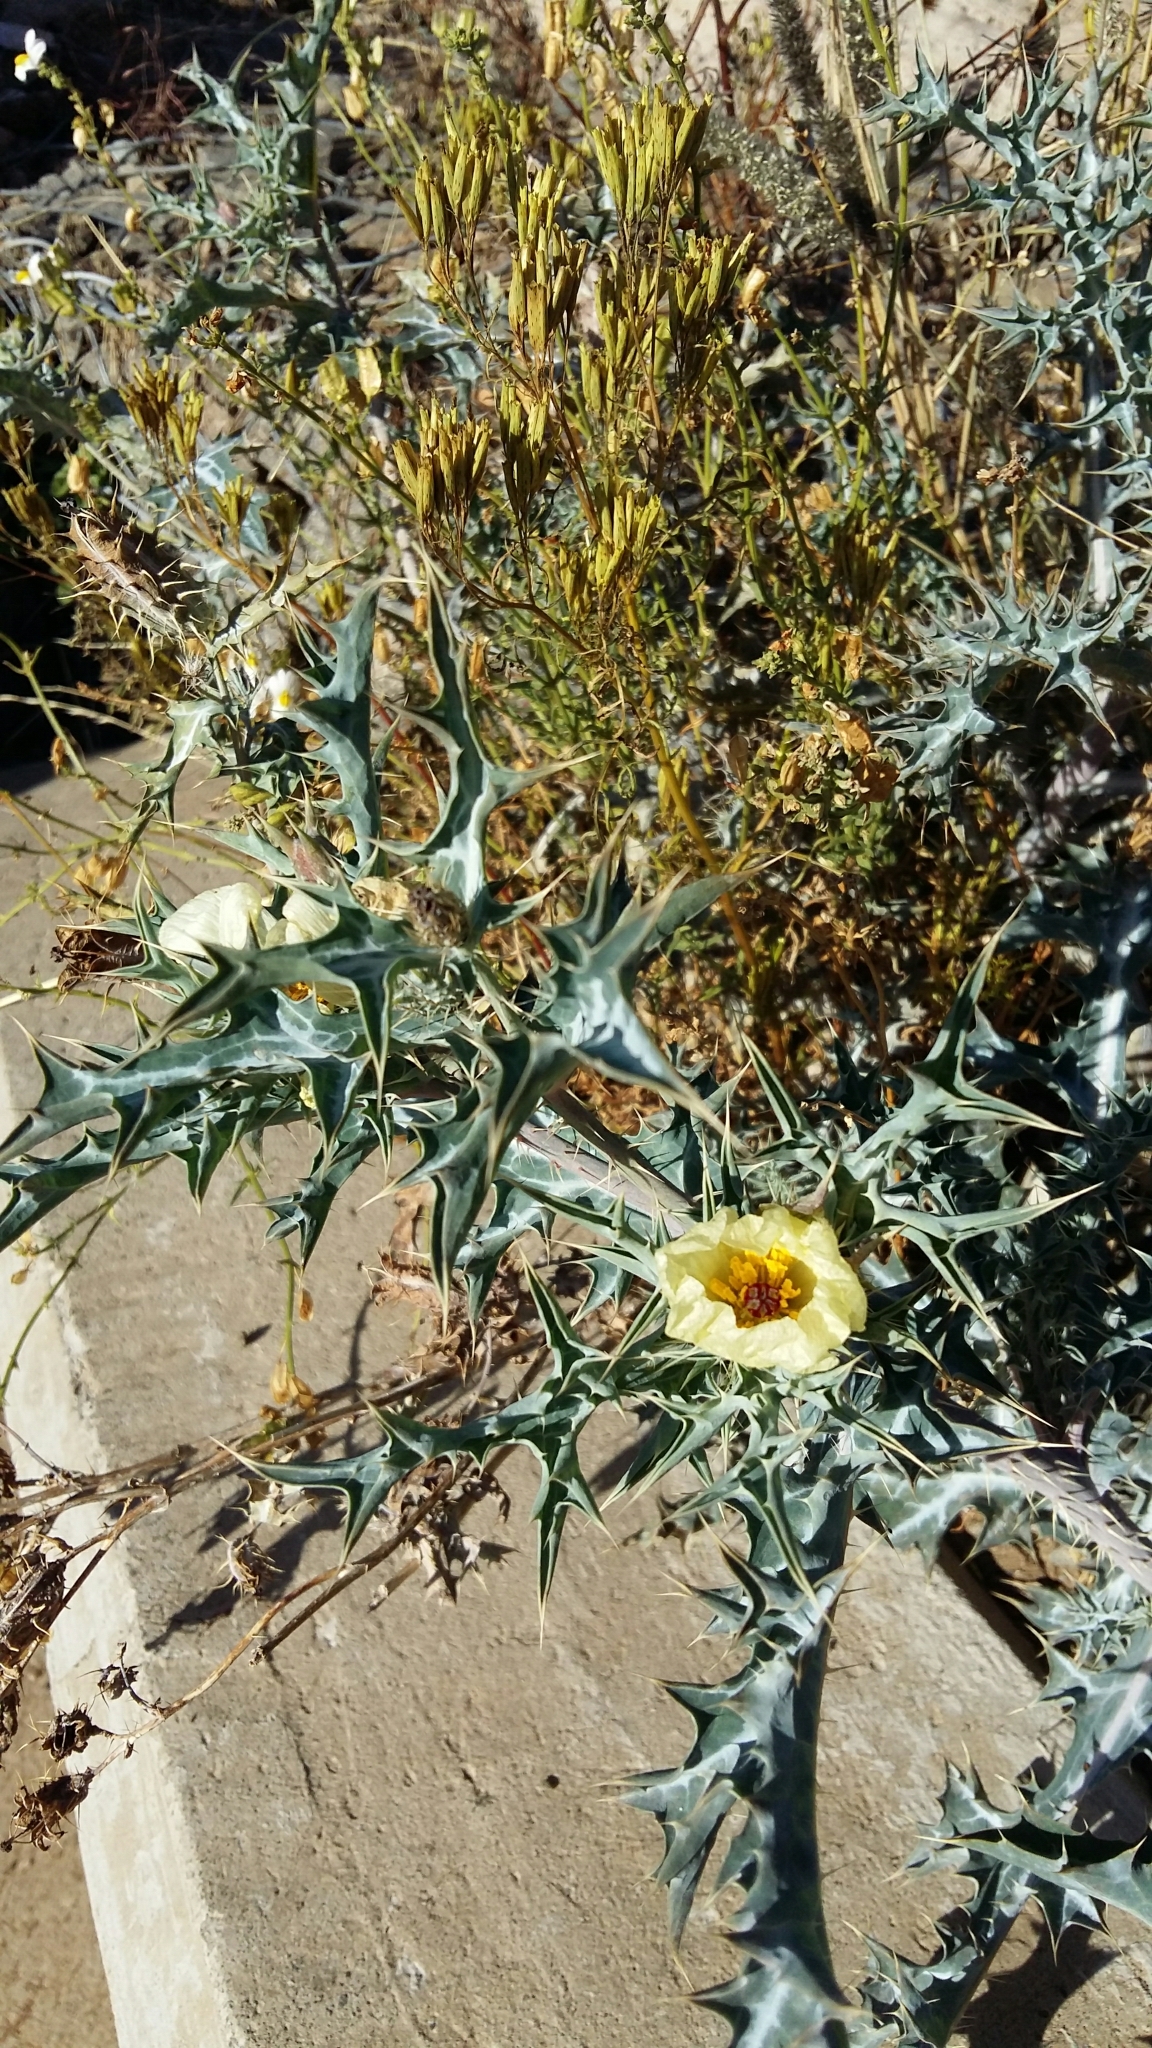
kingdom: Plantae
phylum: Tracheophyta
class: Magnoliopsida
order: Ranunculales
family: Papaveraceae
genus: Argemone
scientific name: Argemone ochroleuca
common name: White-flower mexican-poppy
